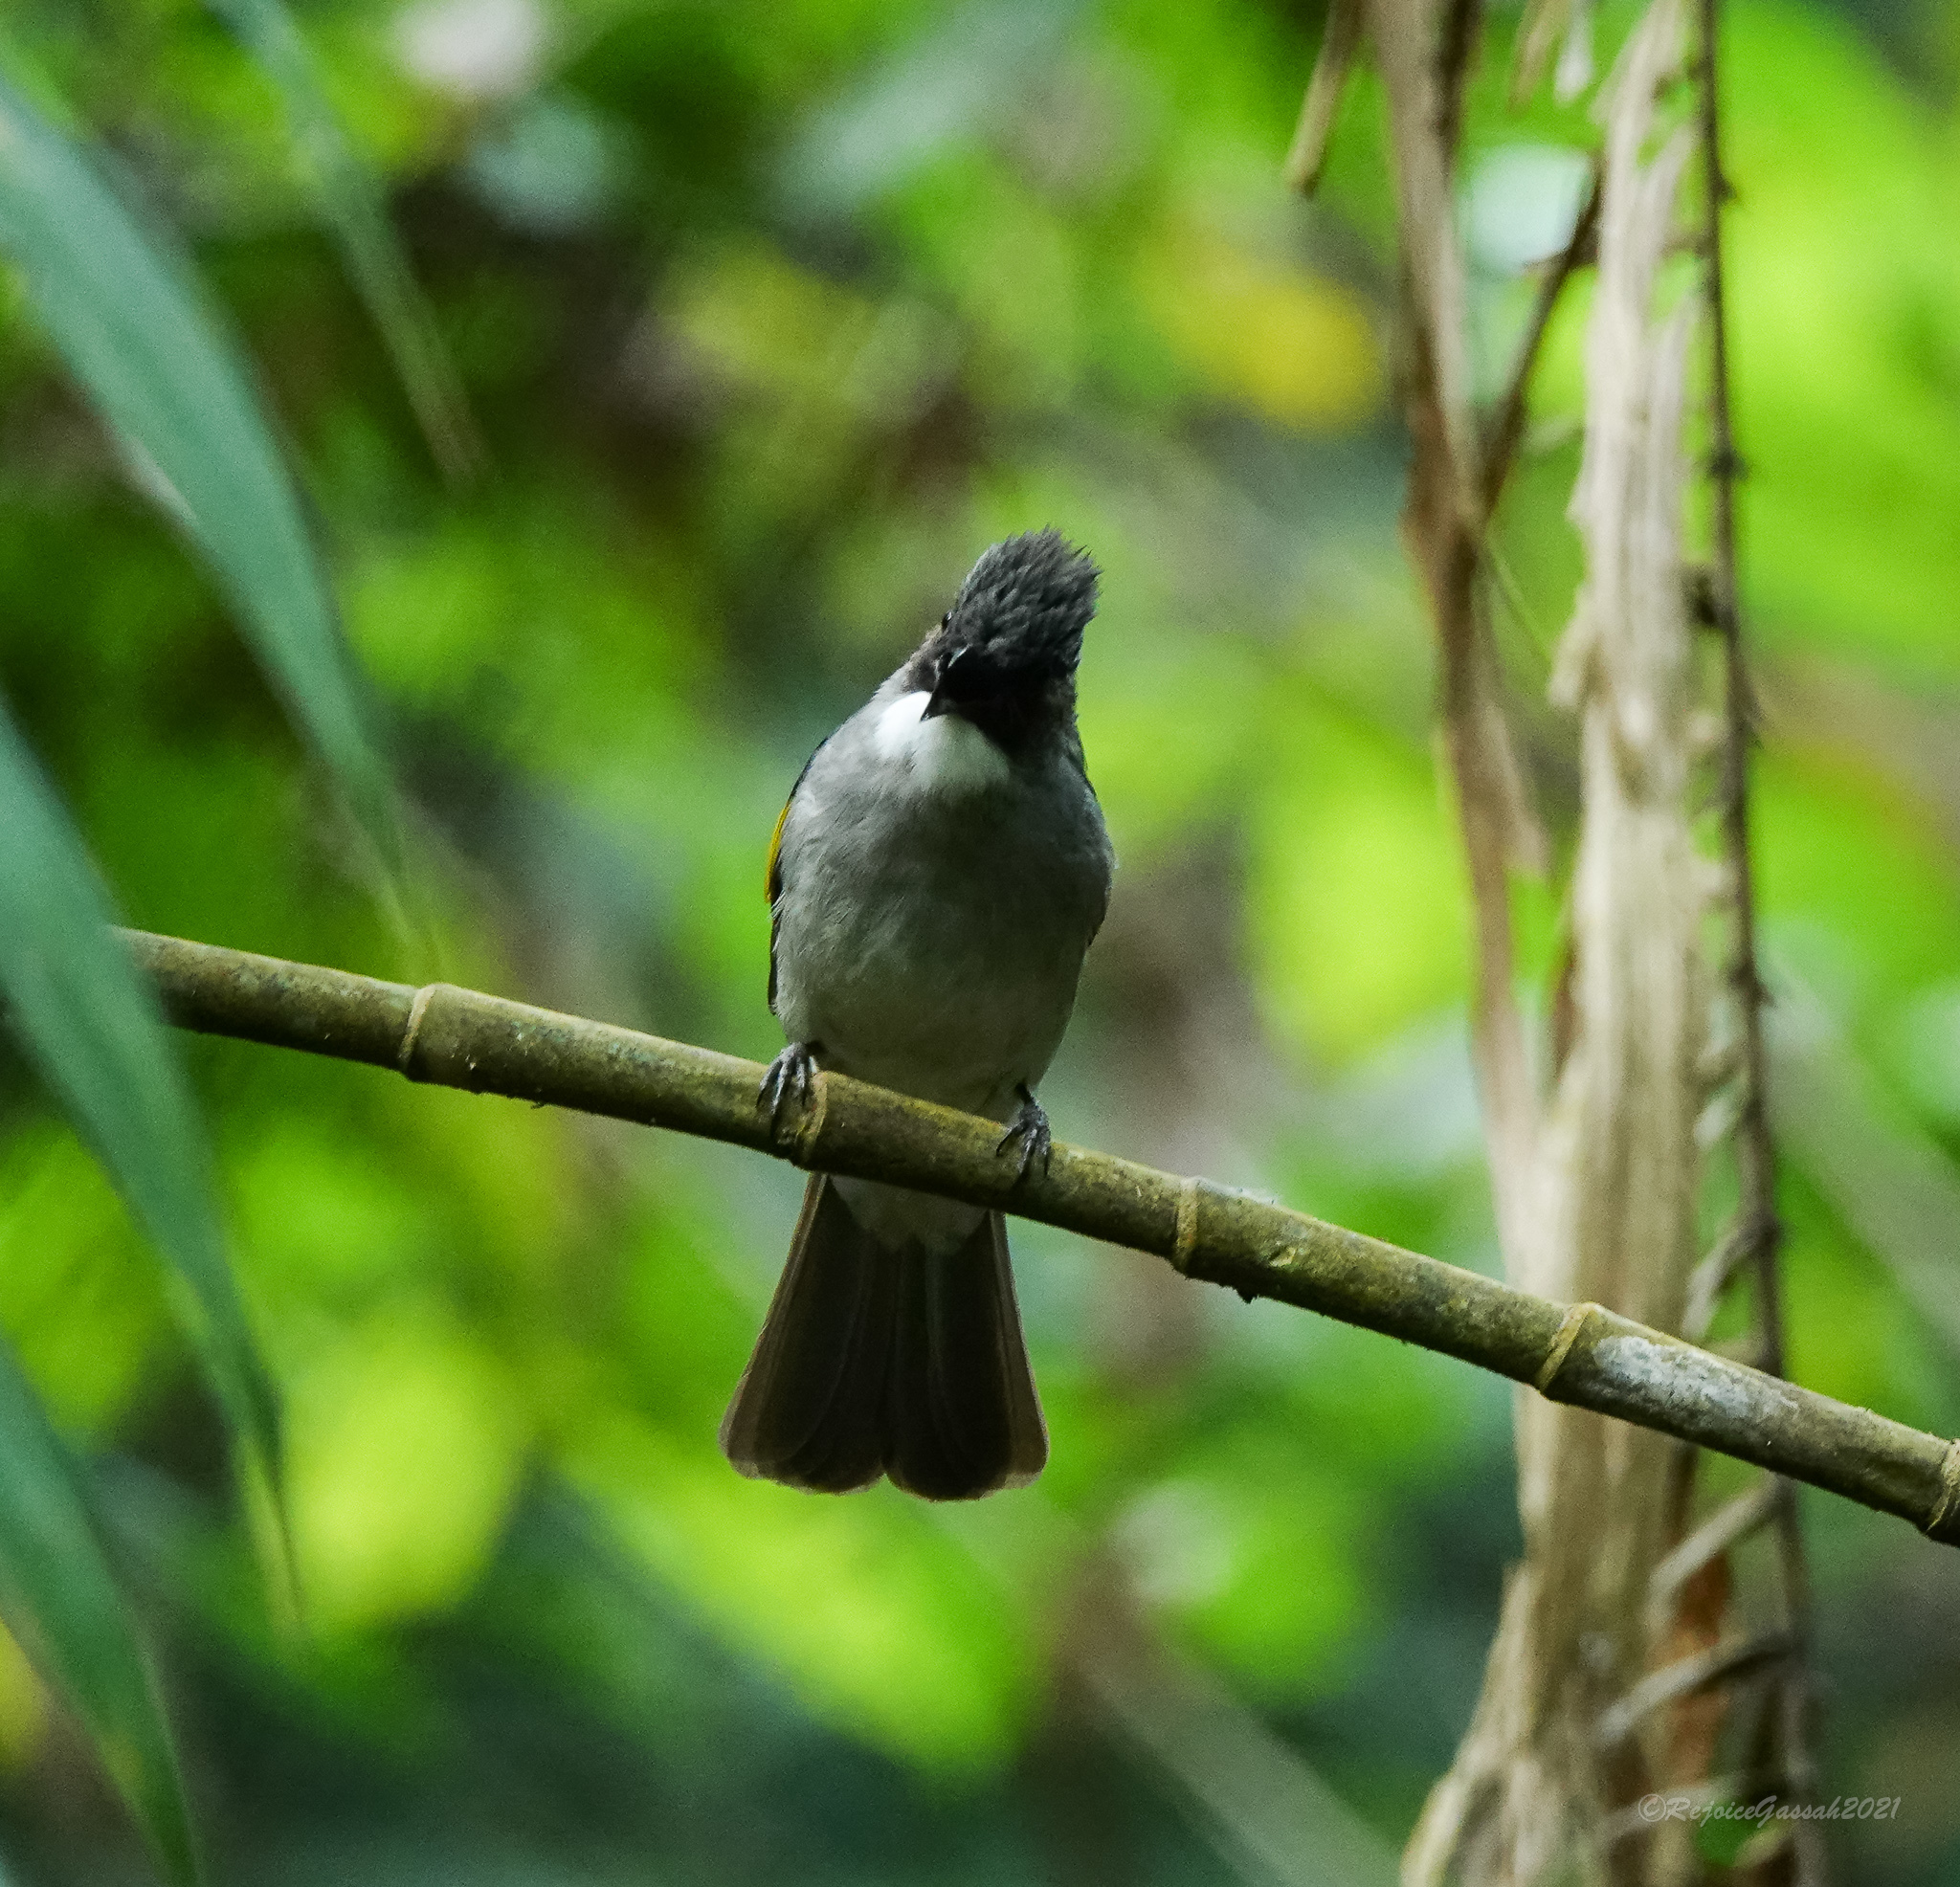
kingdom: Animalia
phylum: Chordata
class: Aves
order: Passeriformes
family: Pycnonotidae
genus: Hemixos
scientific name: Hemixos flavala
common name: Ashy bulbul
